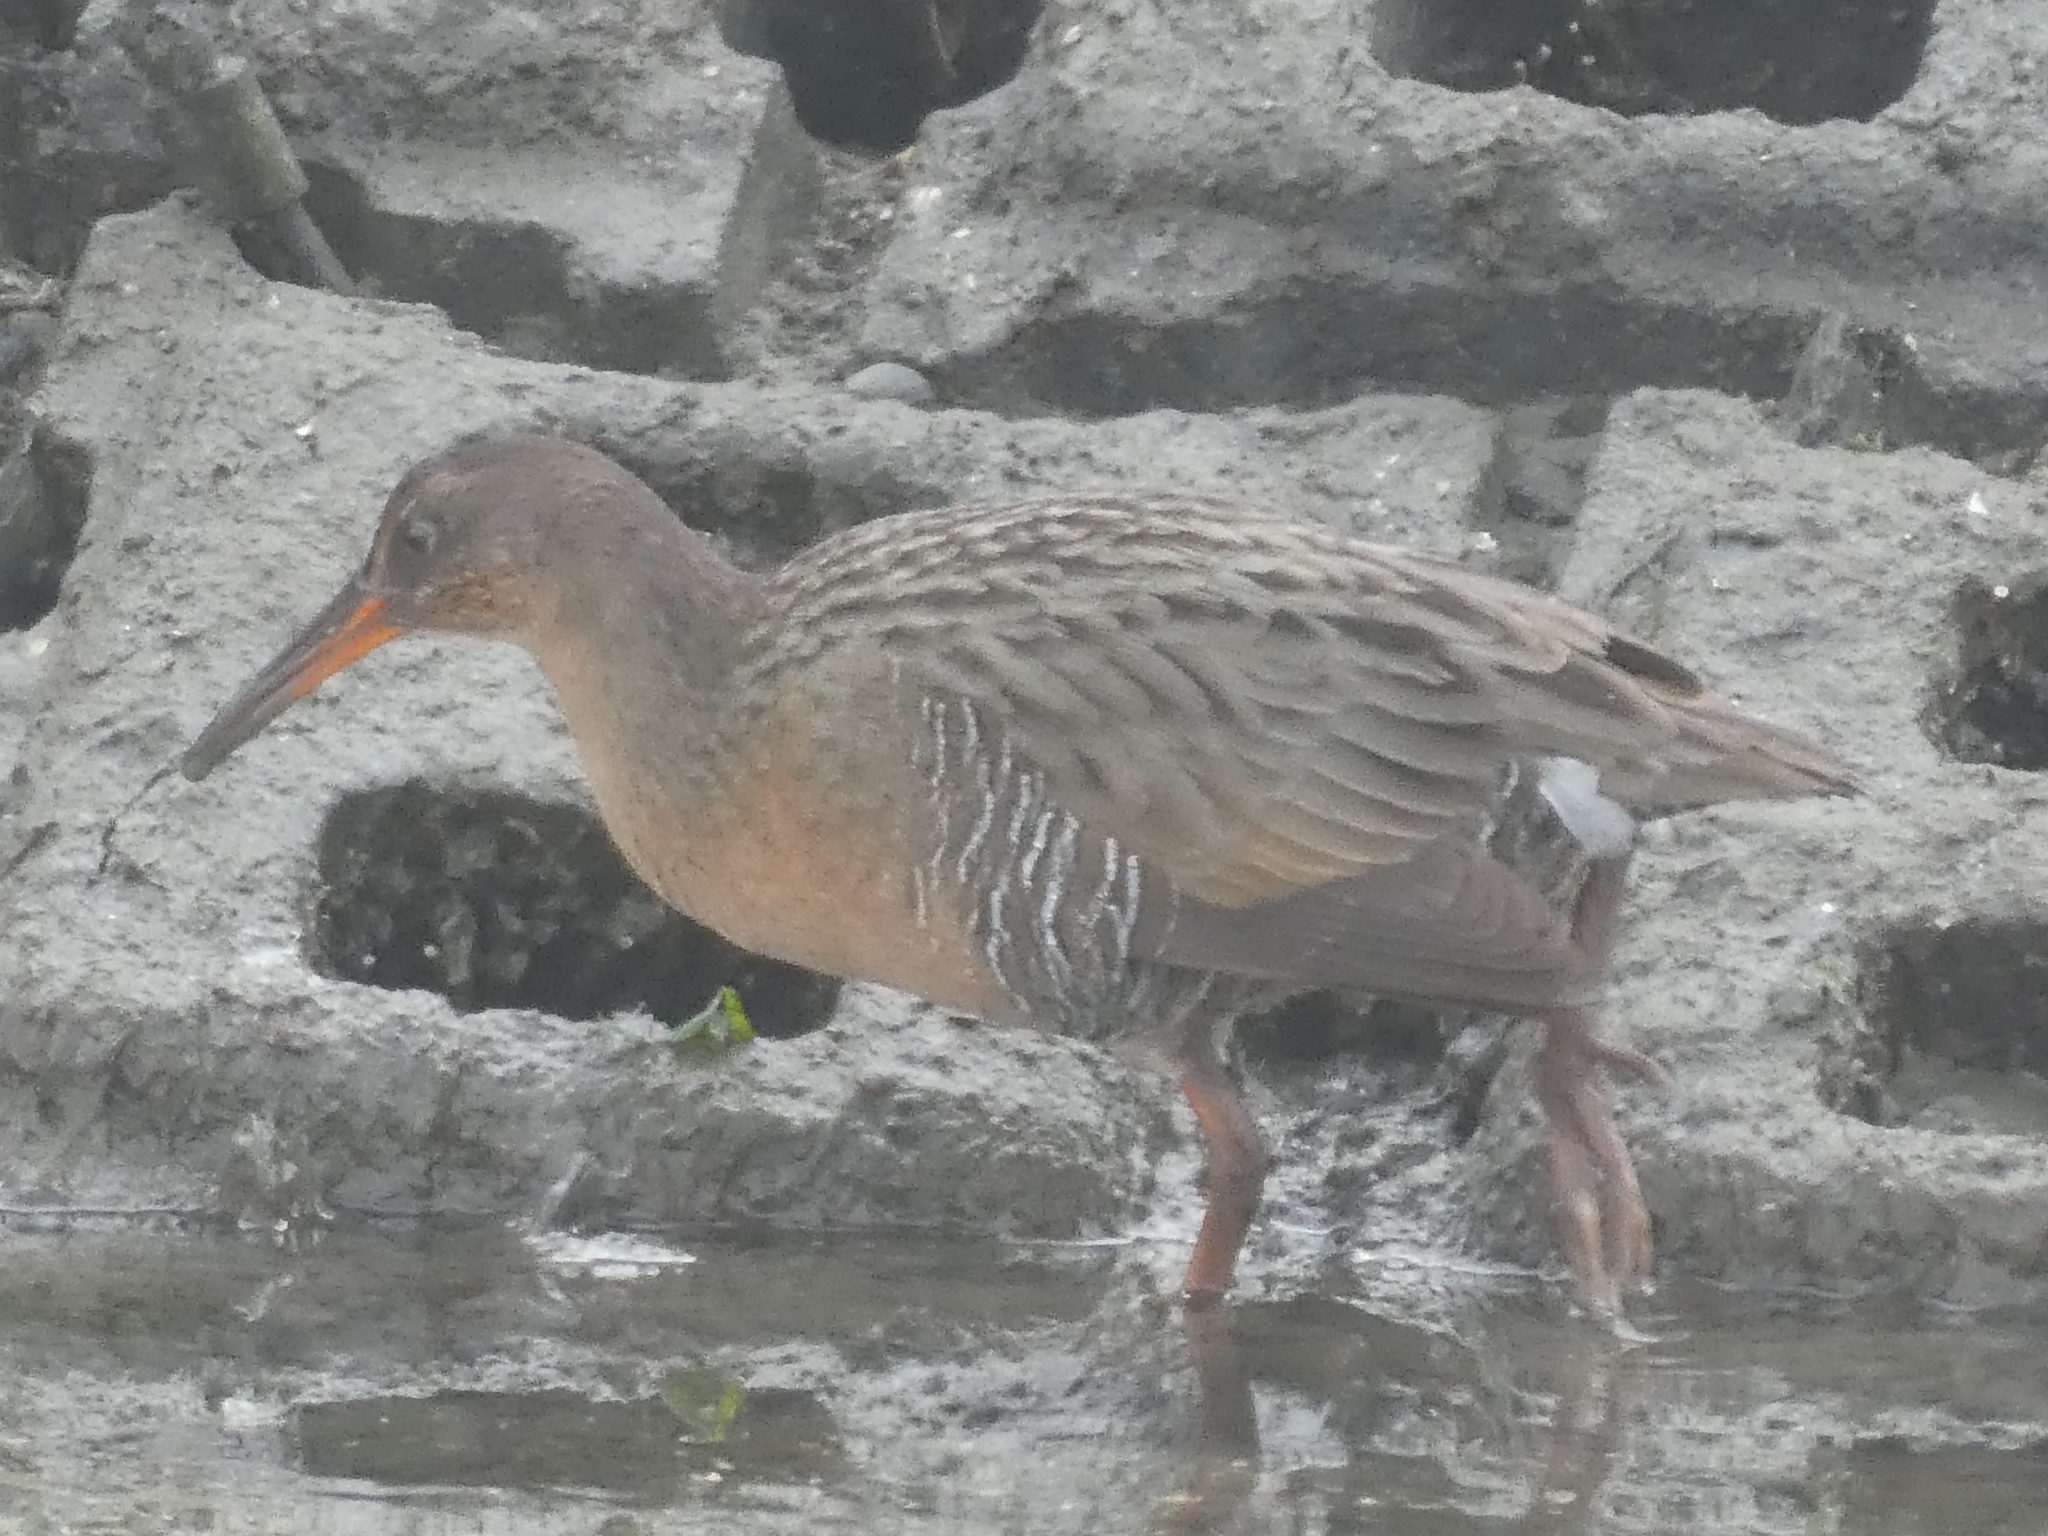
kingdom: Animalia
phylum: Chordata
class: Aves
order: Gruiformes
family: Rallidae
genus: Rallus
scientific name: Rallus obsoletus
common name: Ridgway's rail
